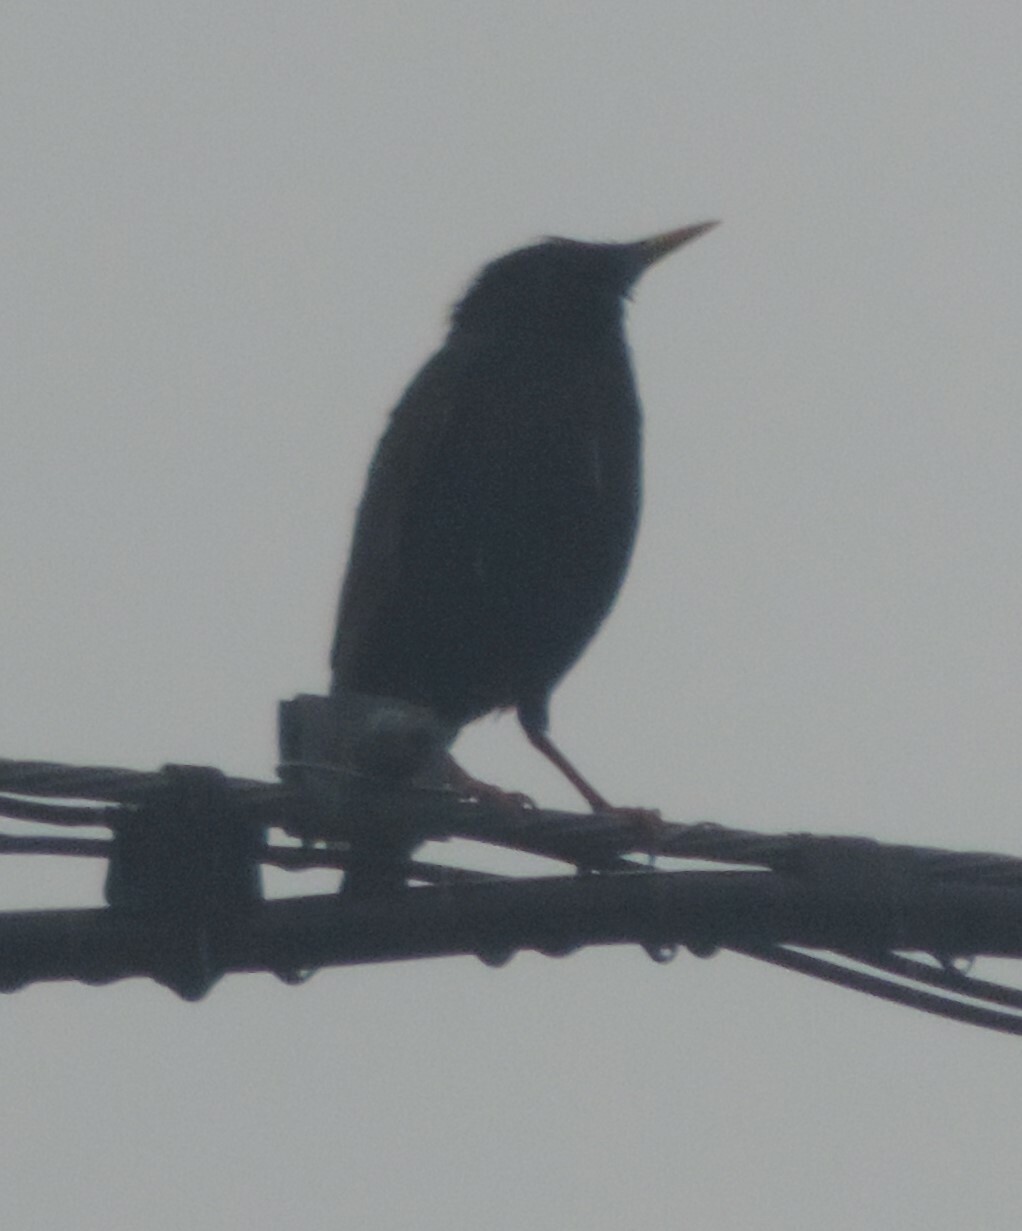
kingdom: Animalia
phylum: Chordata
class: Aves
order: Passeriformes
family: Sturnidae
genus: Sturnus
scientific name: Sturnus vulgaris
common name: Common starling
